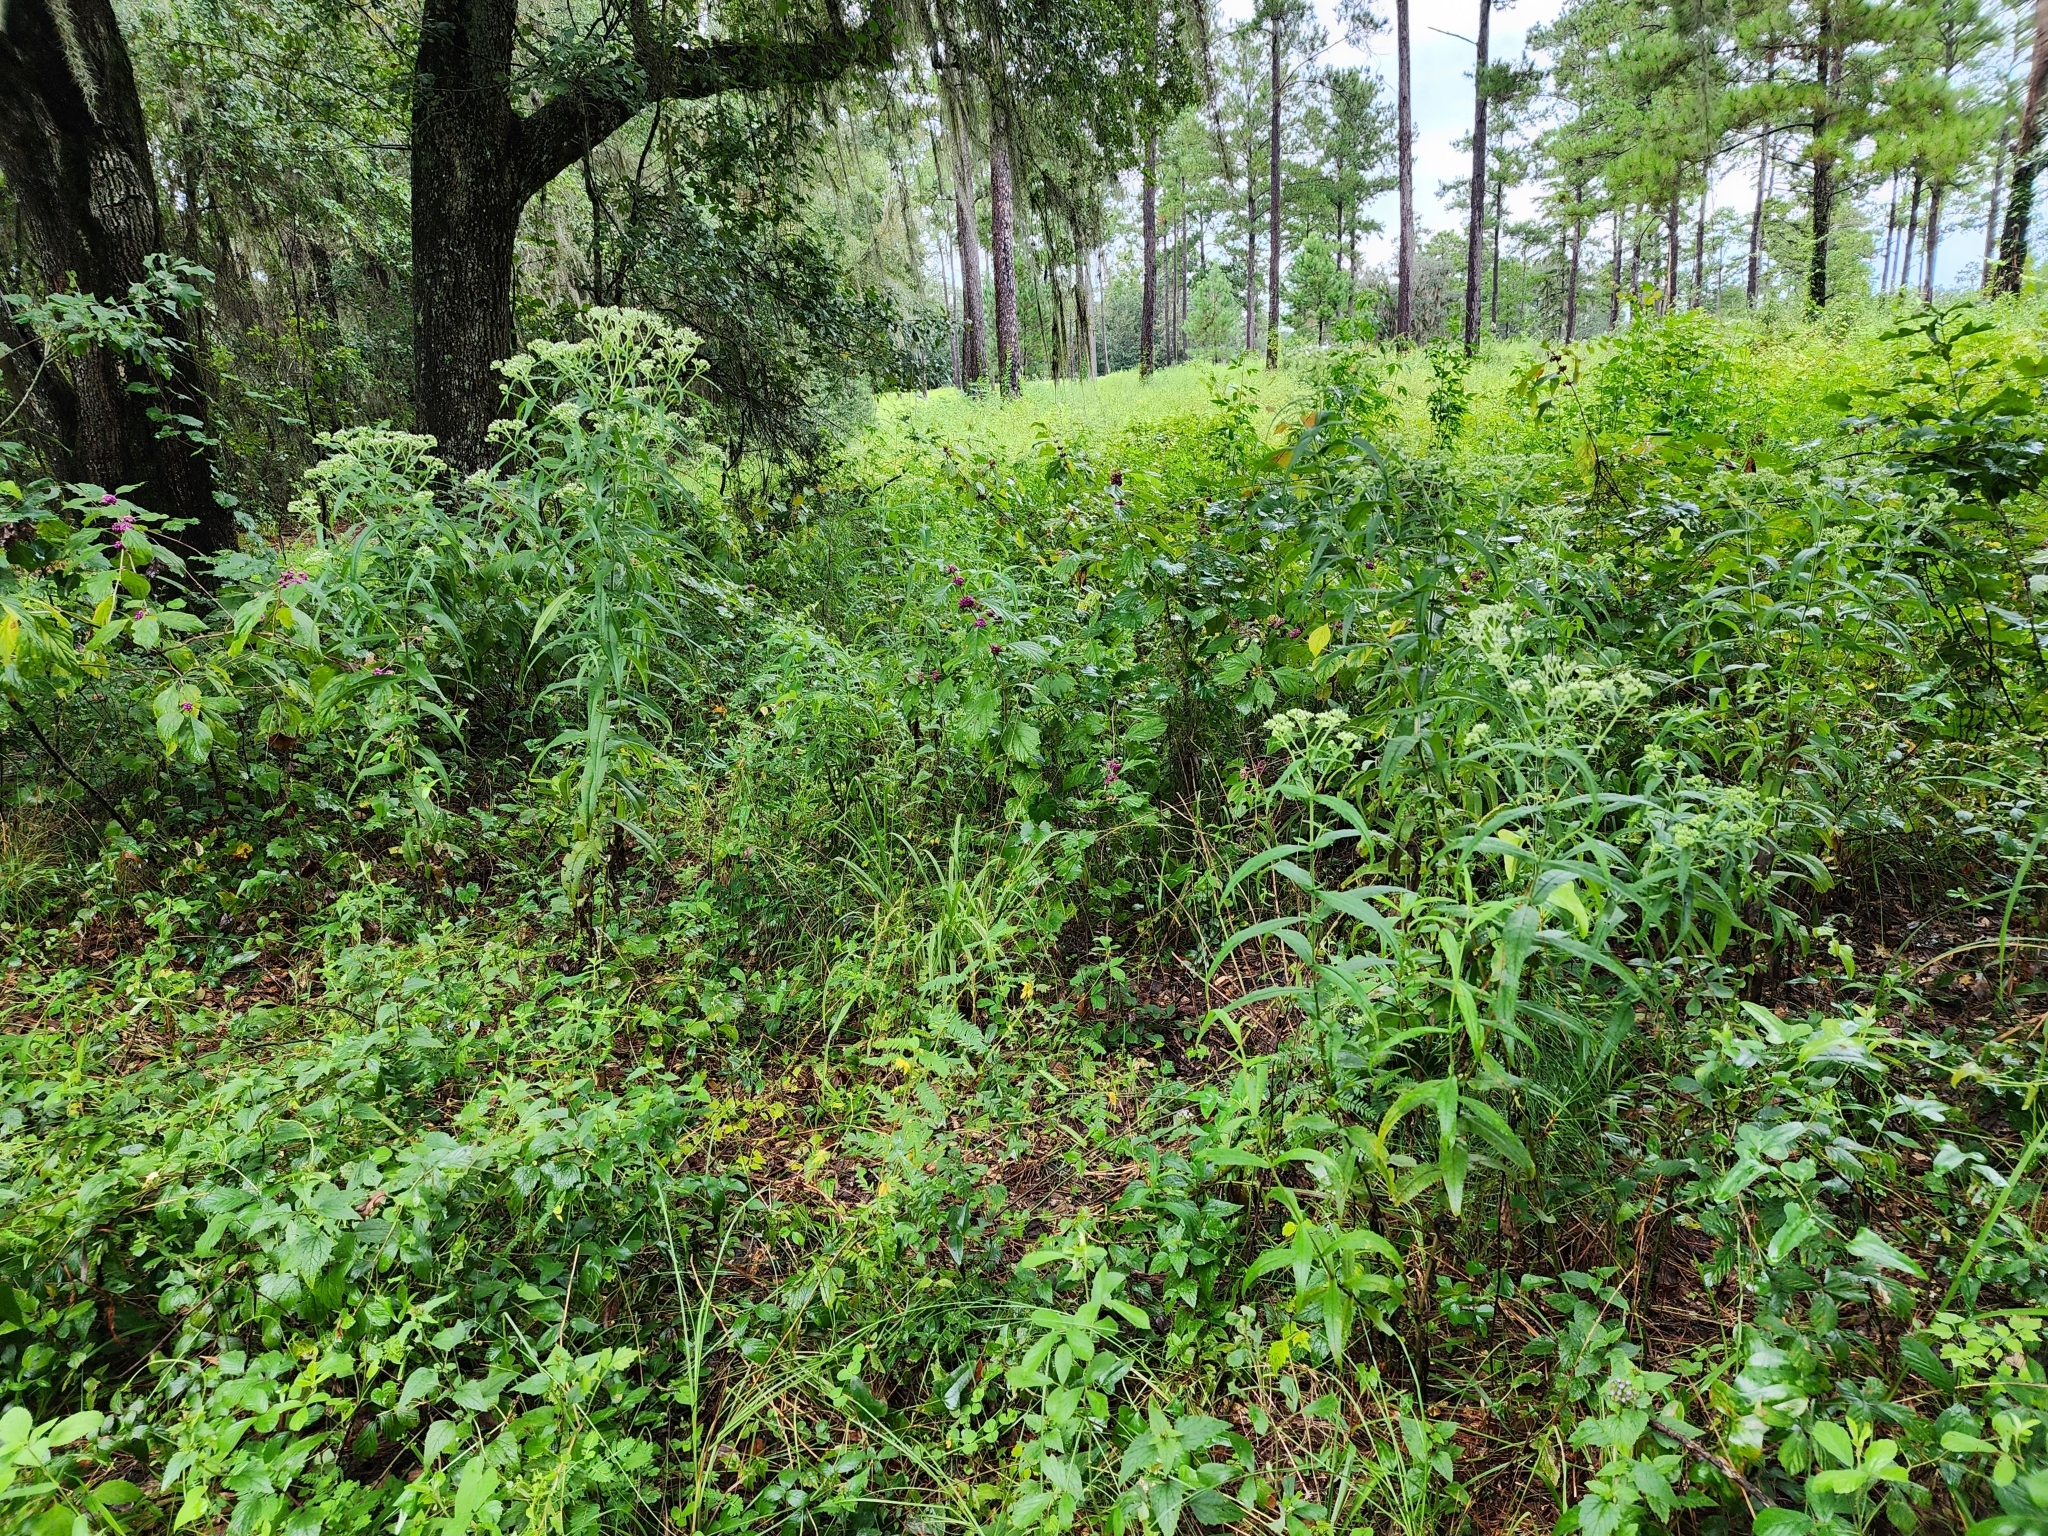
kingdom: Plantae
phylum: Tracheophyta
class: Magnoliopsida
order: Asterales
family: Asteraceae
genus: Eupatorium
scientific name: Eupatorium perfoliatum
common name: Boneset
